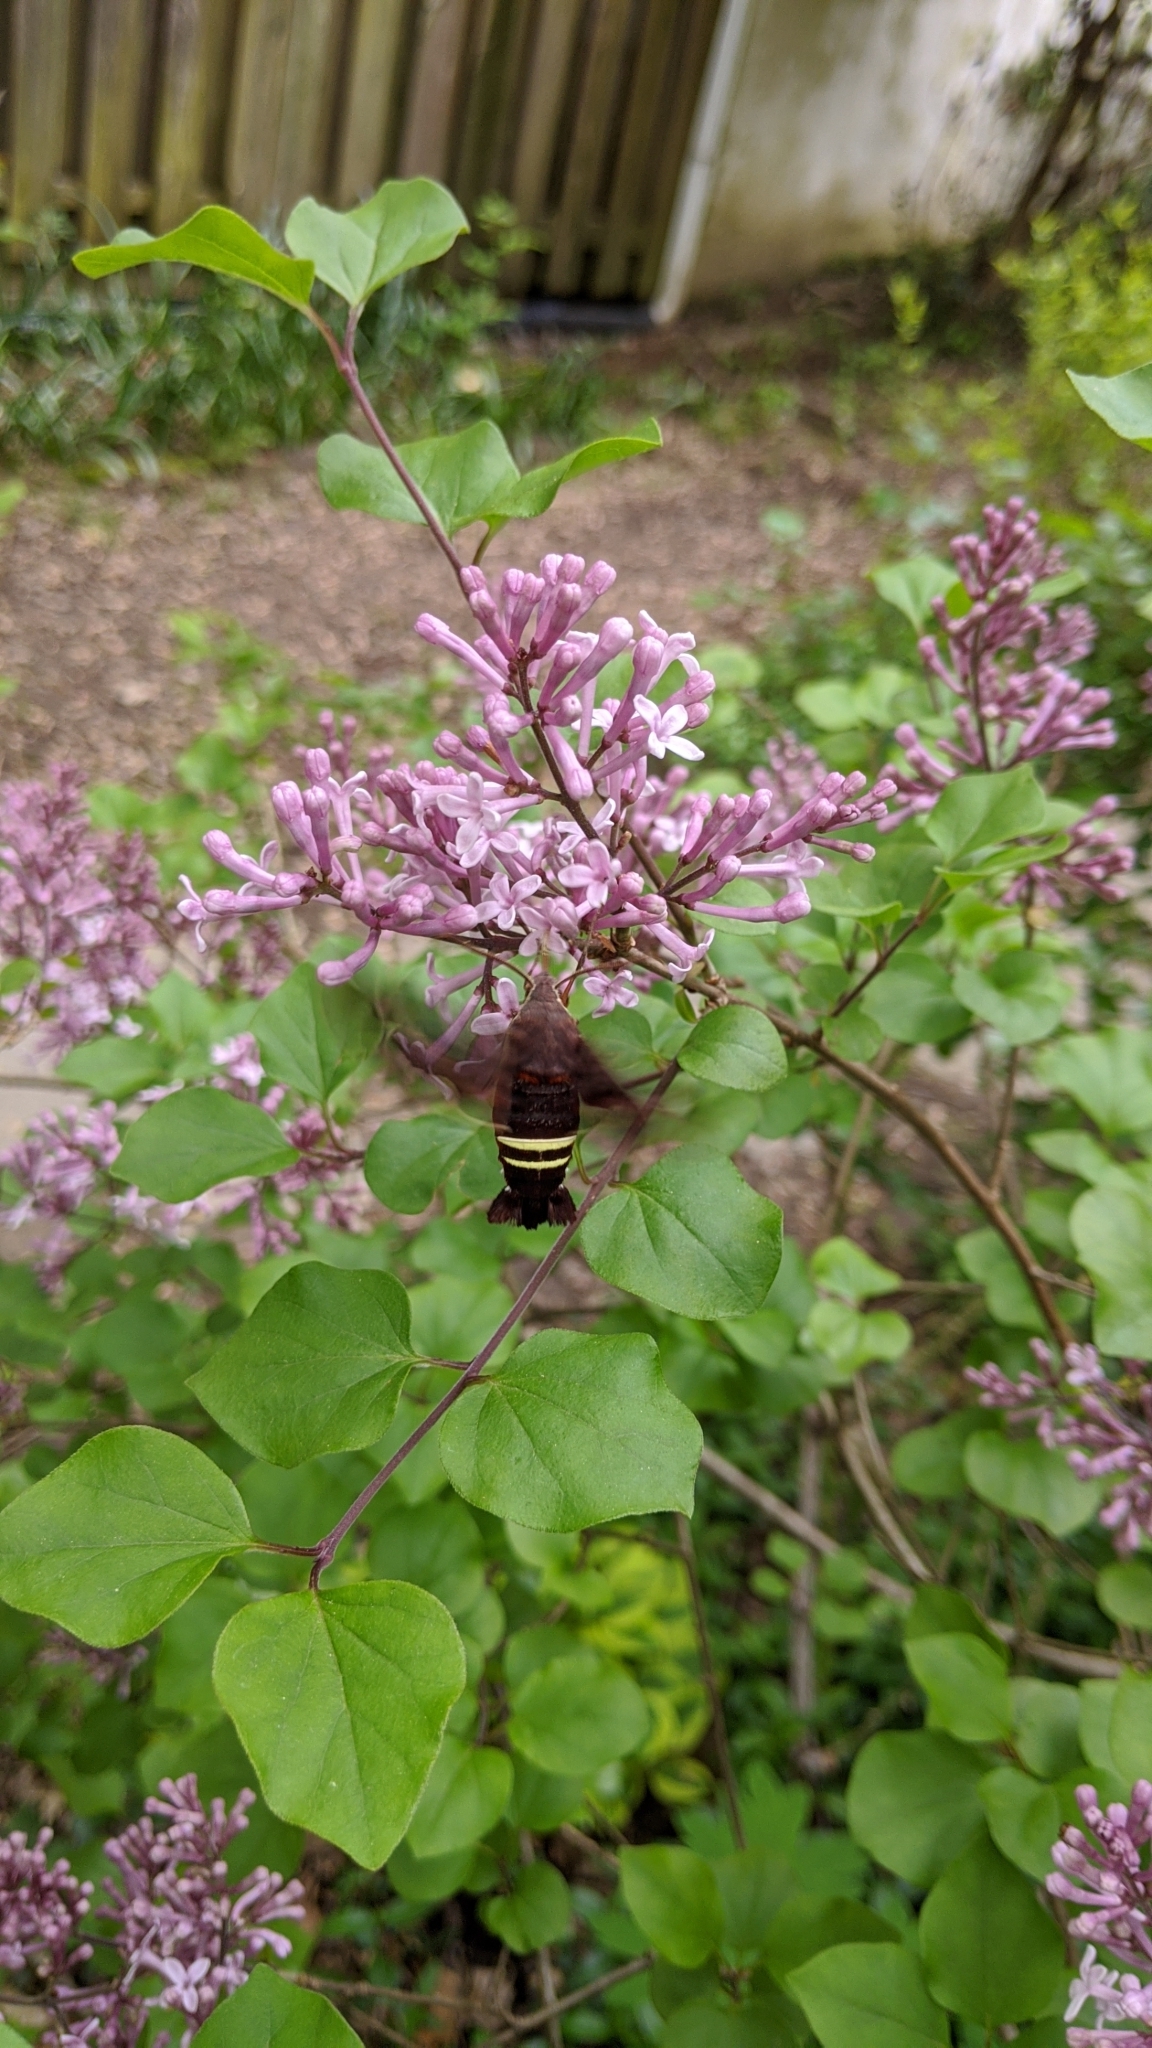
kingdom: Animalia
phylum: Arthropoda
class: Insecta
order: Lepidoptera
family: Sphingidae
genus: Amphion
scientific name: Amphion floridensis
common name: Nessus sphinx
